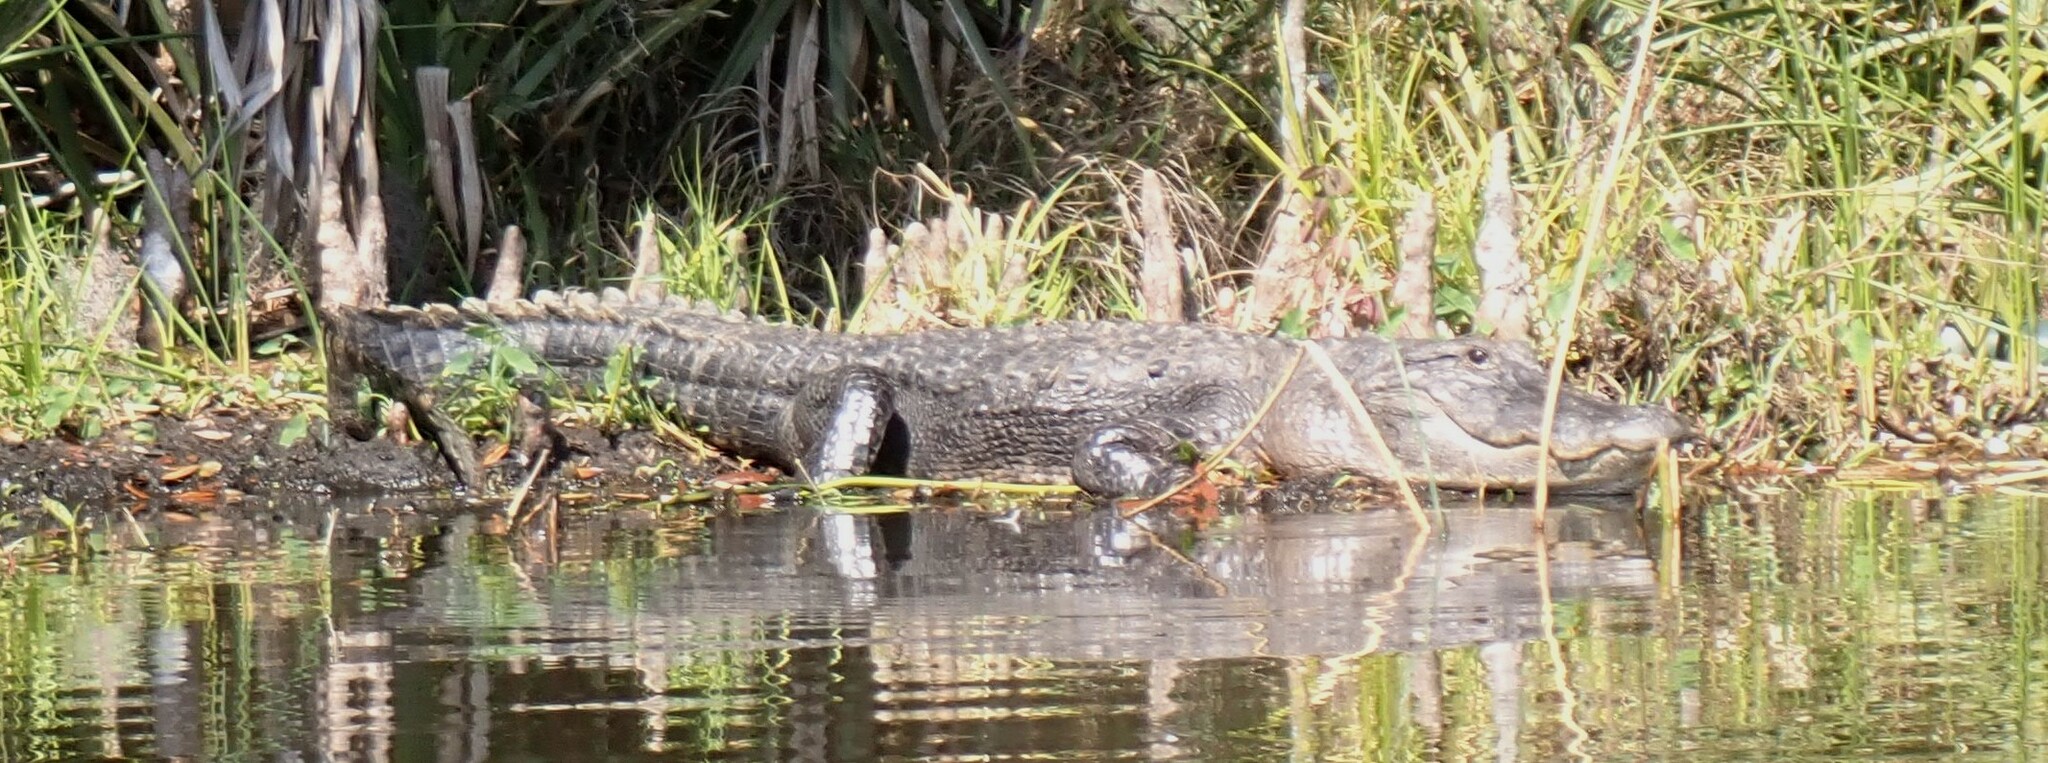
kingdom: Animalia
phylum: Chordata
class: Crocodylia
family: Alligatoridae
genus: Alligator
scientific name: Alligator mississippiensis
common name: American alligator
